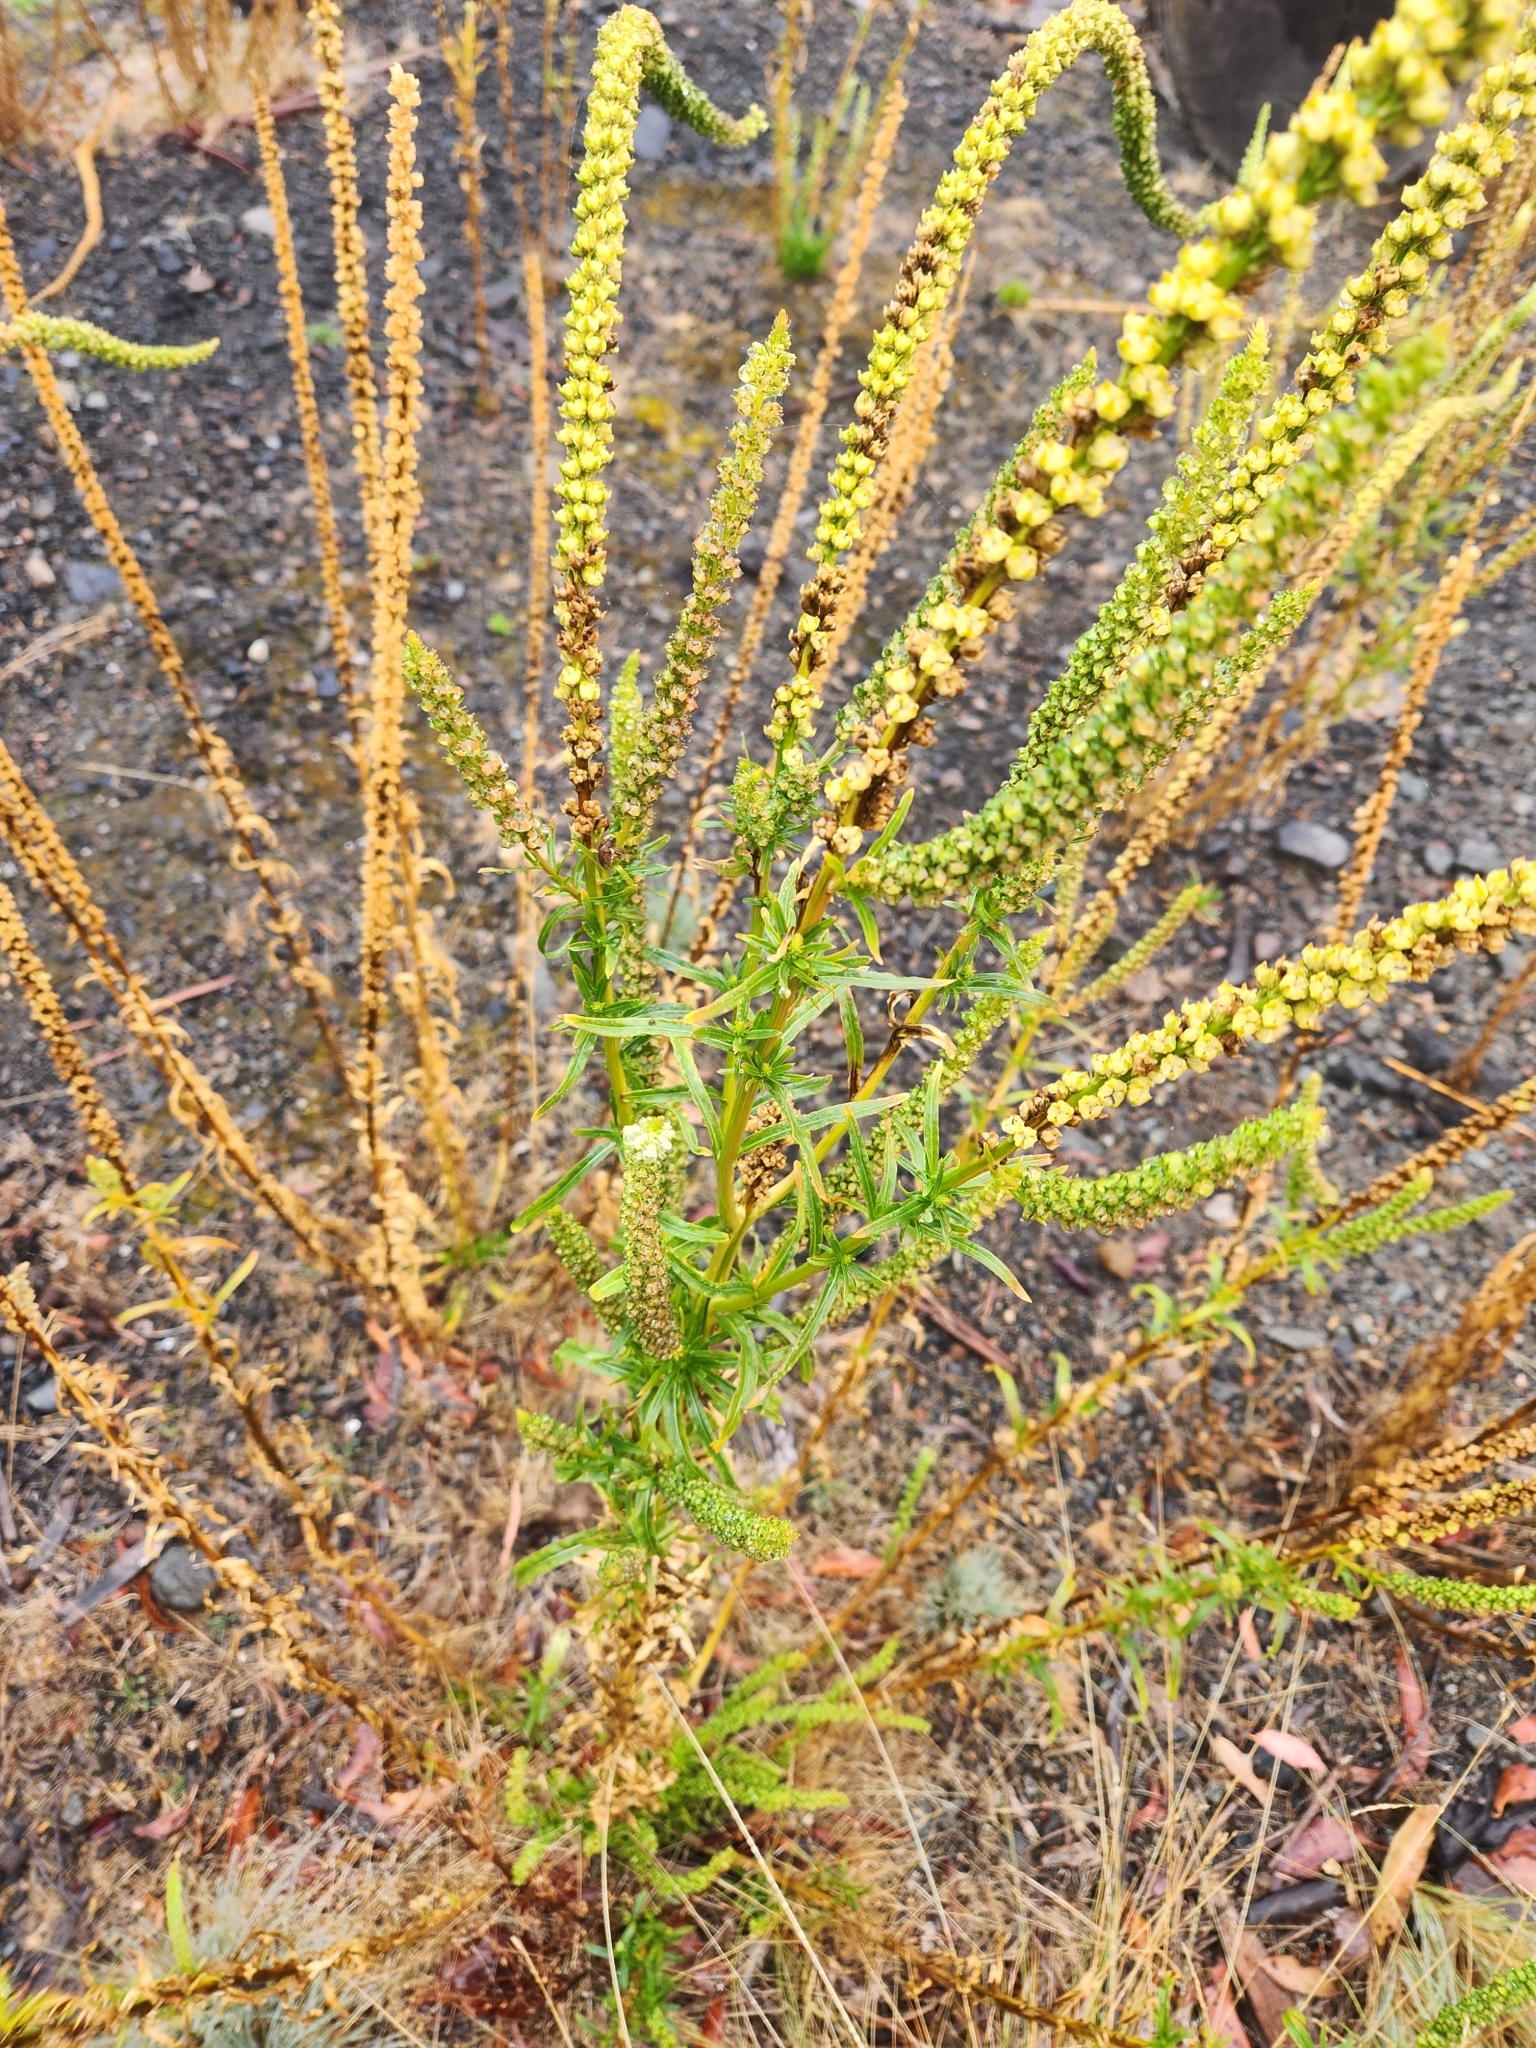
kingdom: Plantae
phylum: Tracheophyta
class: Magnoliopsida
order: Brassicales
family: Resedaceae
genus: Reseda
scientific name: Reseda luteola
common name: Weld
